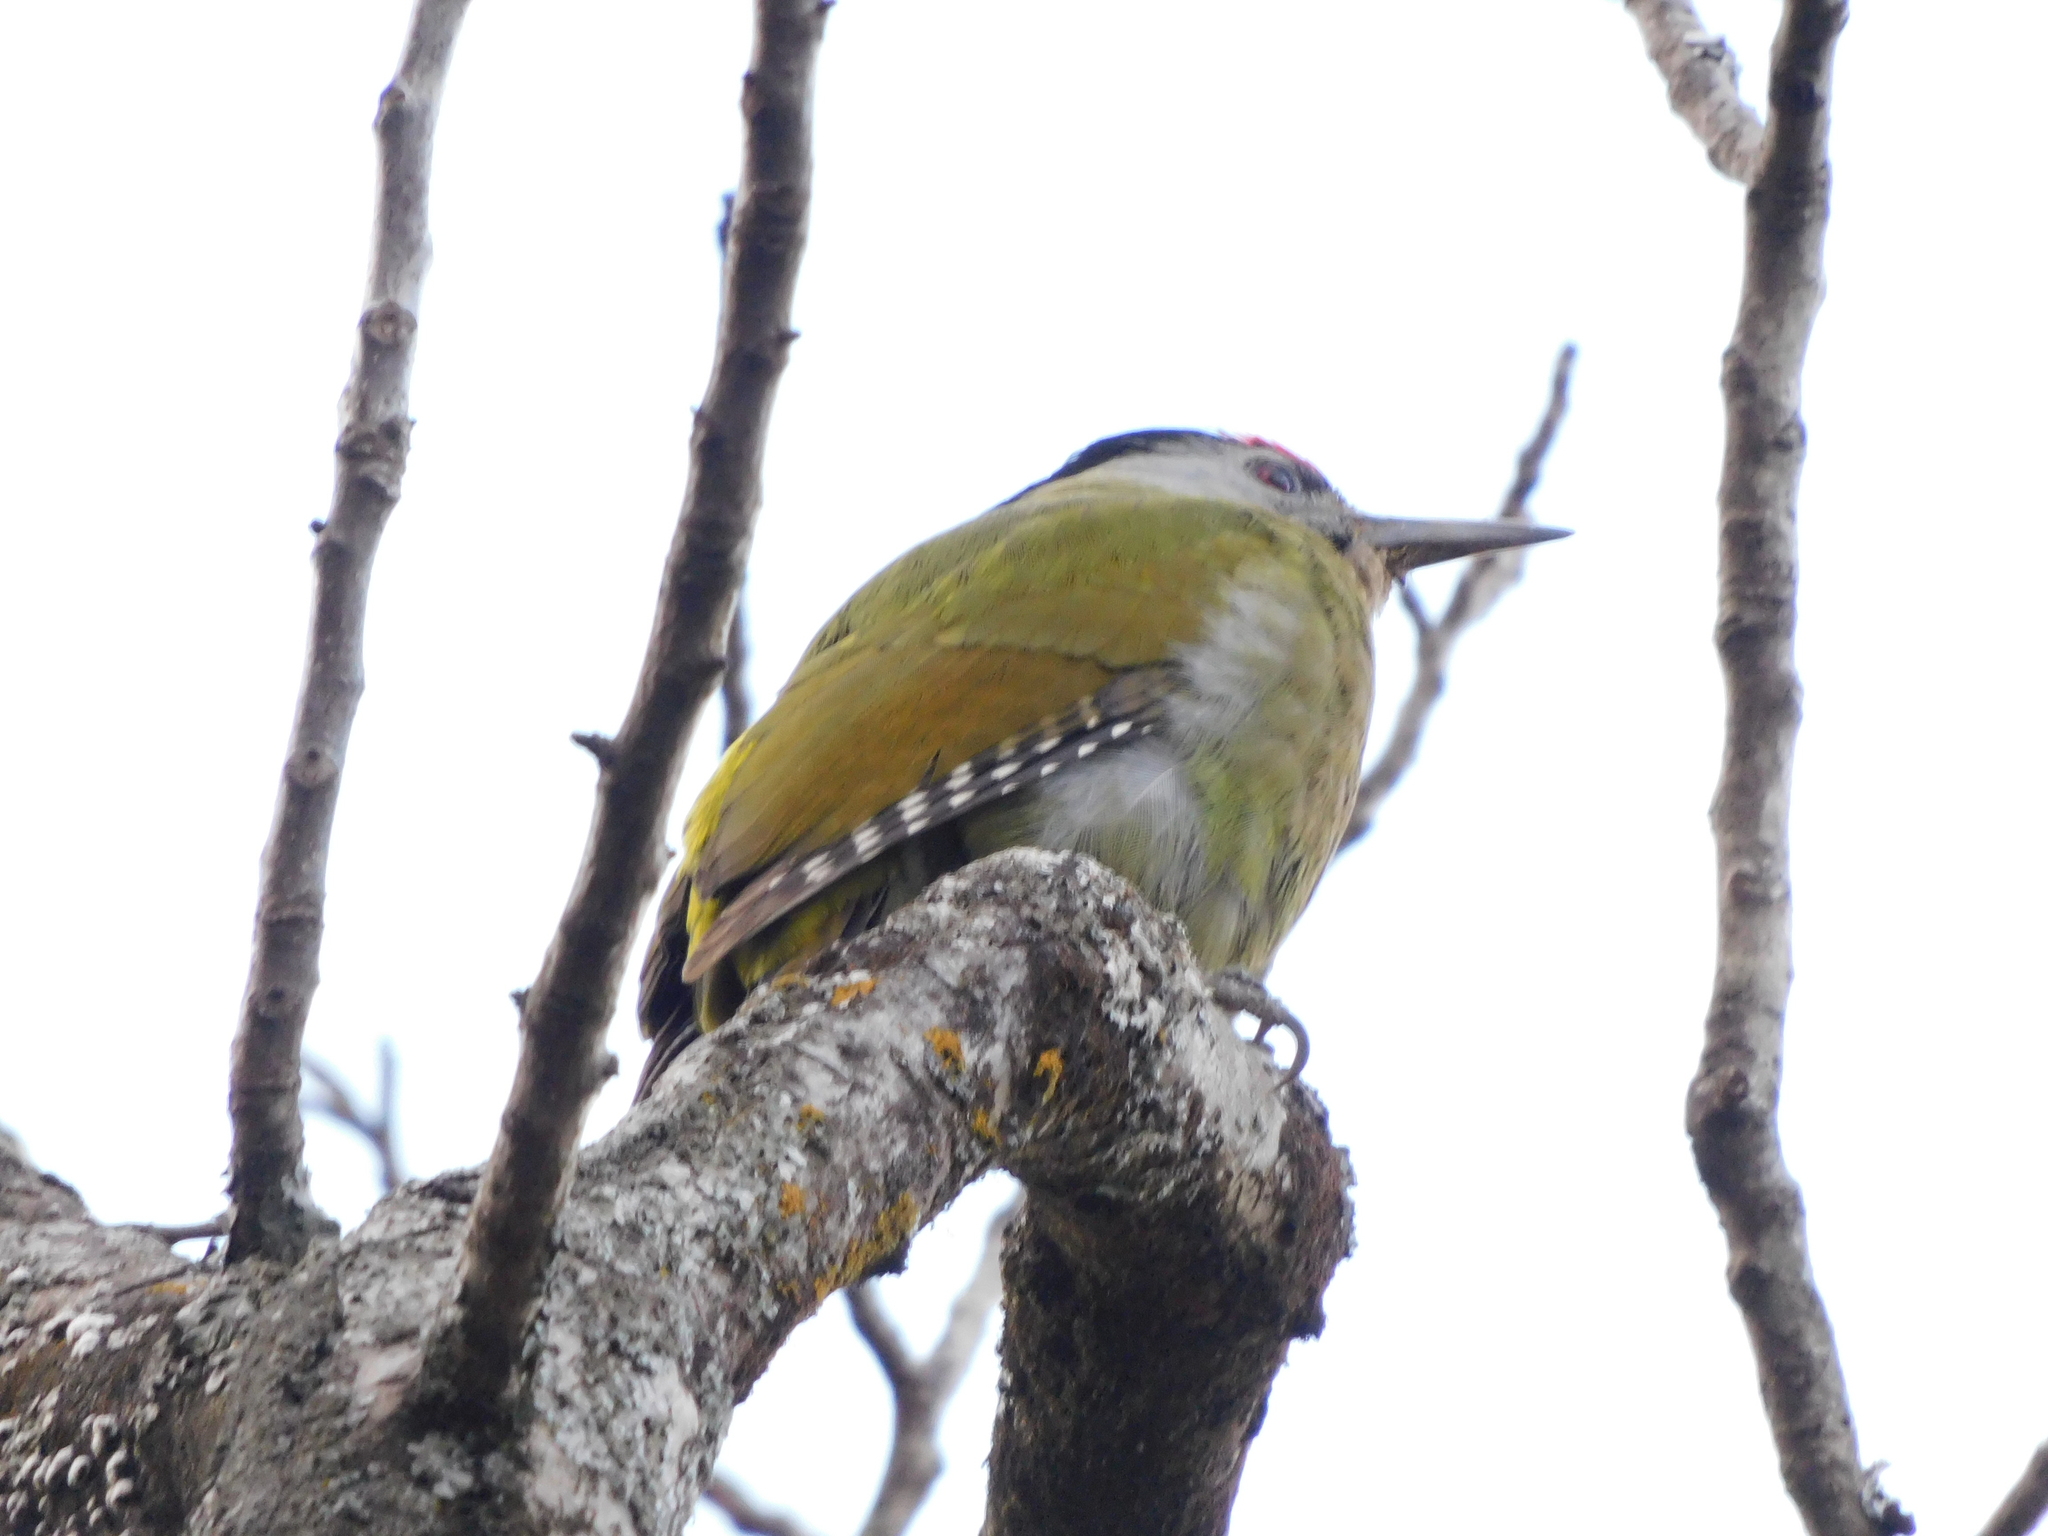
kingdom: Animalia
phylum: Chordata
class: Aves
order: Piciformes
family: Picidae
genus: Picus
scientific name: Picus canus
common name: Grey-headed woodpecker
